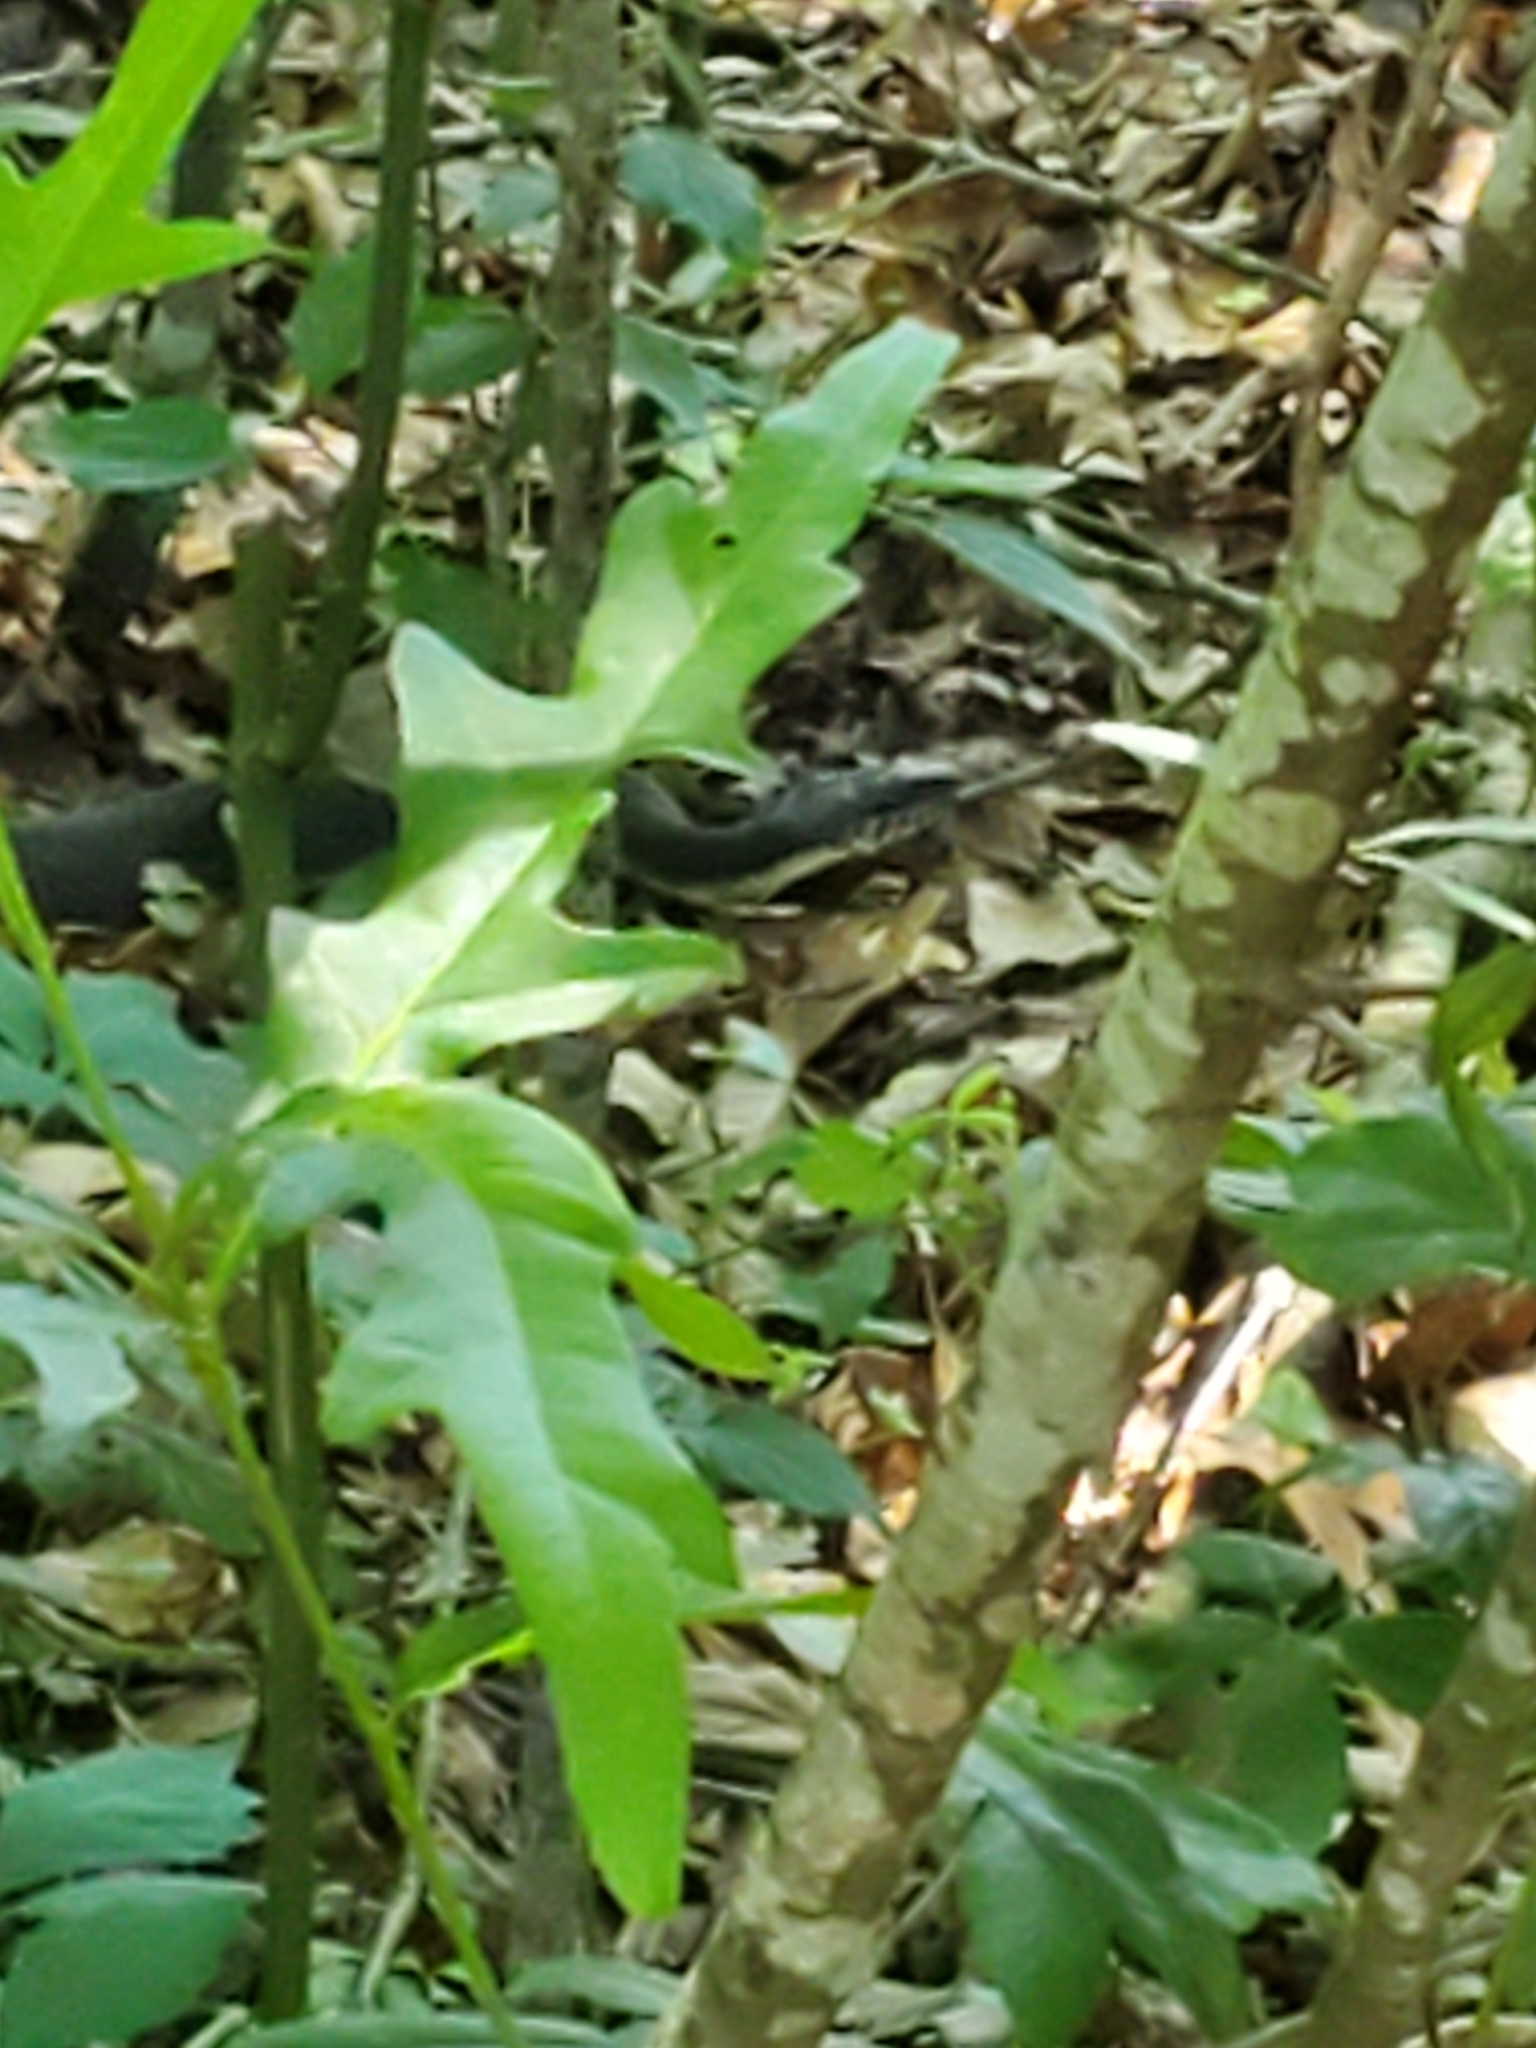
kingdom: Animalia
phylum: Chordata
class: Squamata
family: Colubridae
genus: Nerodia
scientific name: Nerodia erythrogaster
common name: Plainbelly water snake
